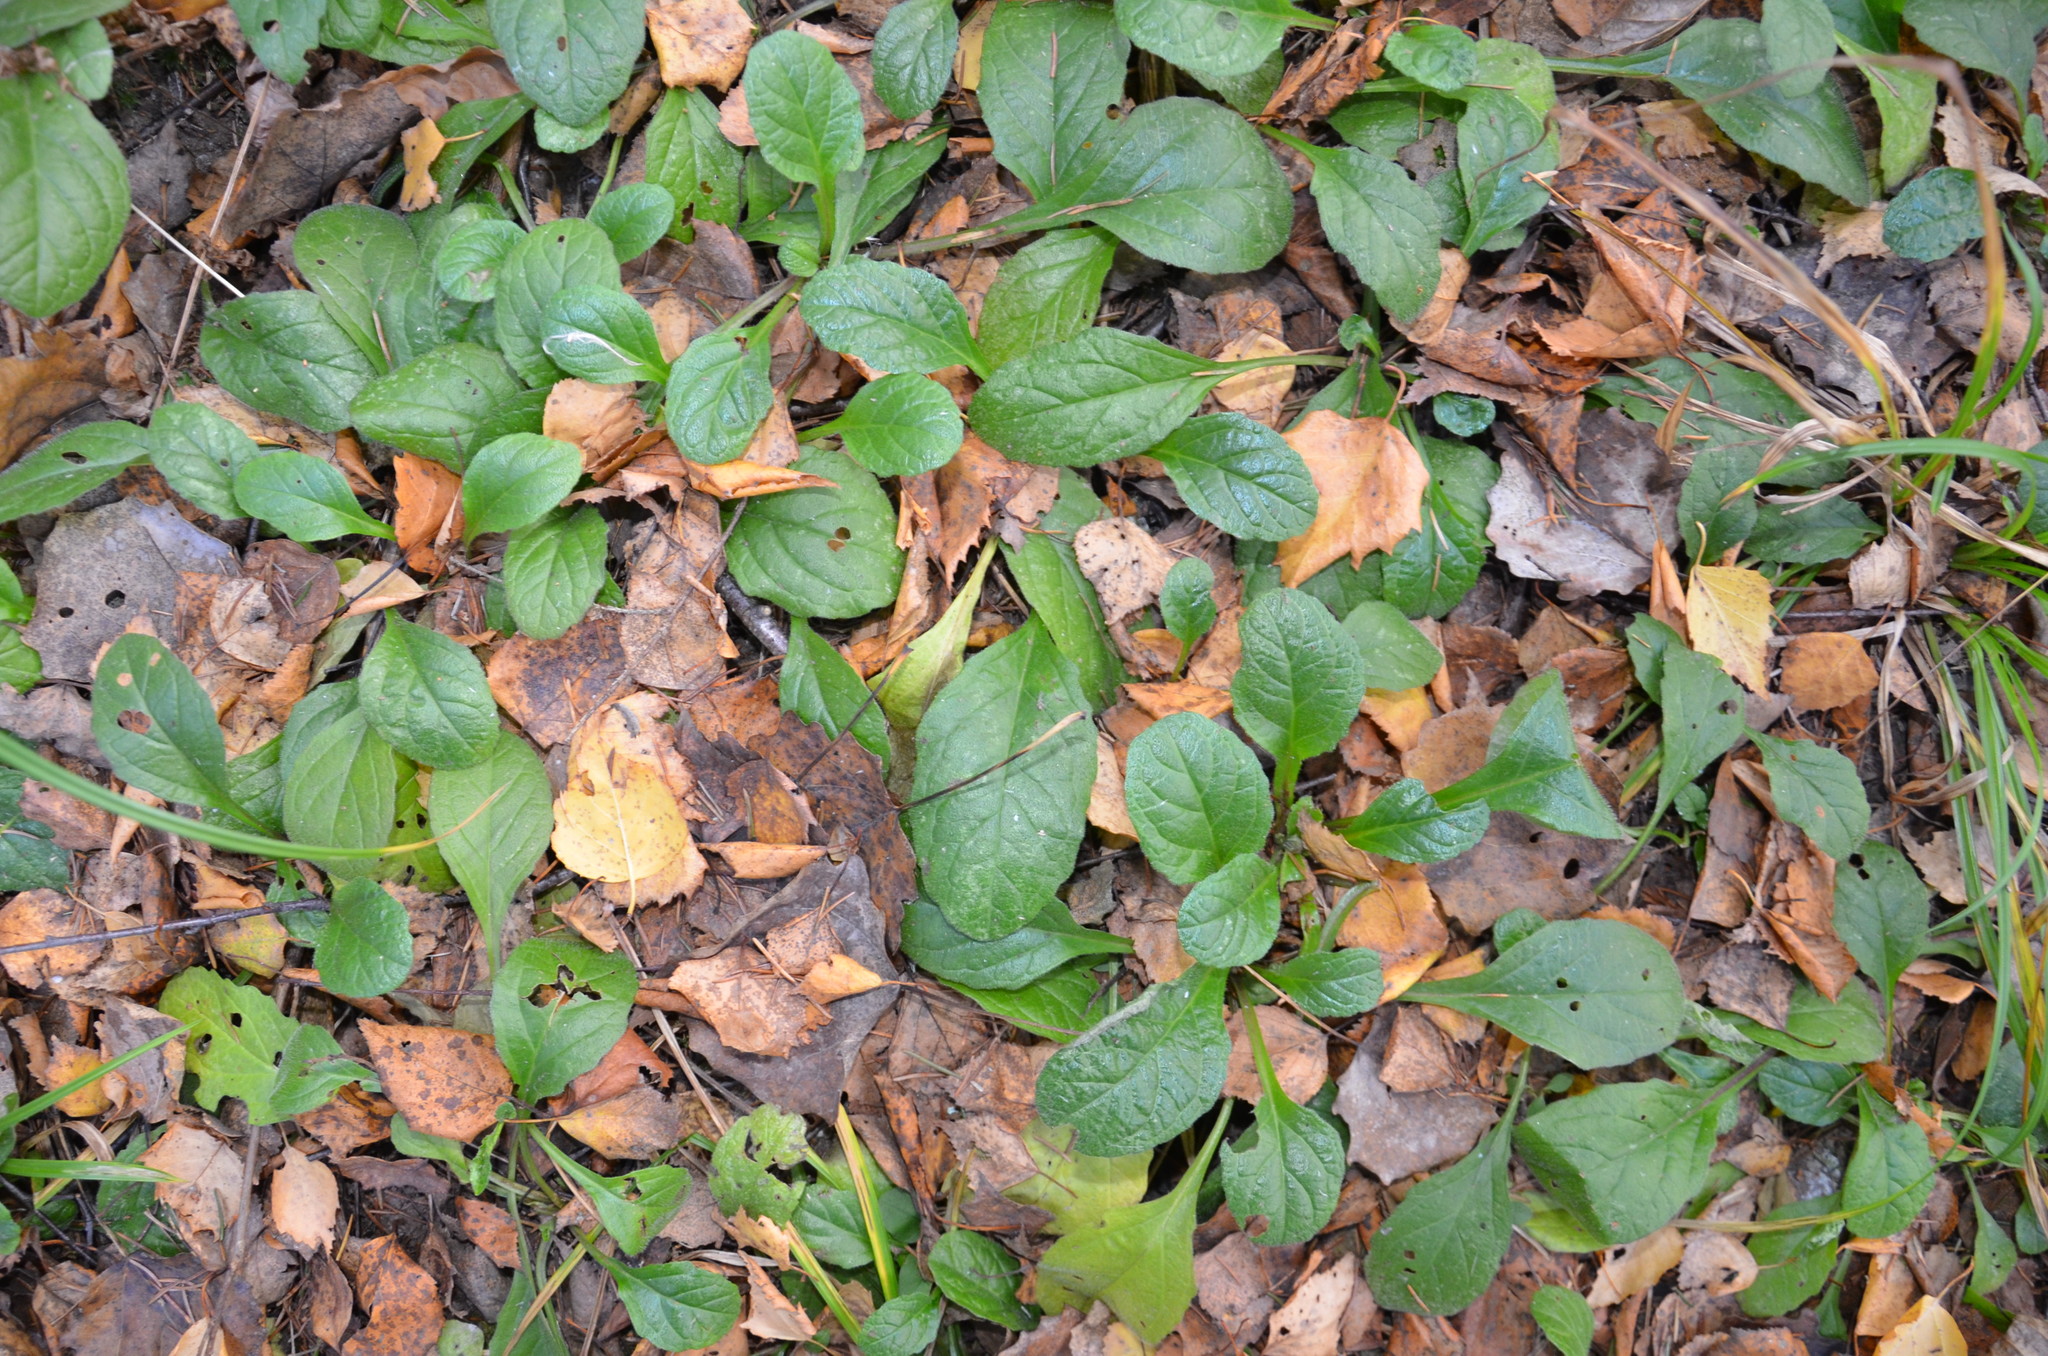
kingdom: Plantae
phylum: Tracheophyta
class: Magnoliopsida
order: Lamiales
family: Lamiaceae
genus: Ajuga
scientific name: Ajuga reptans
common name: Bugle
